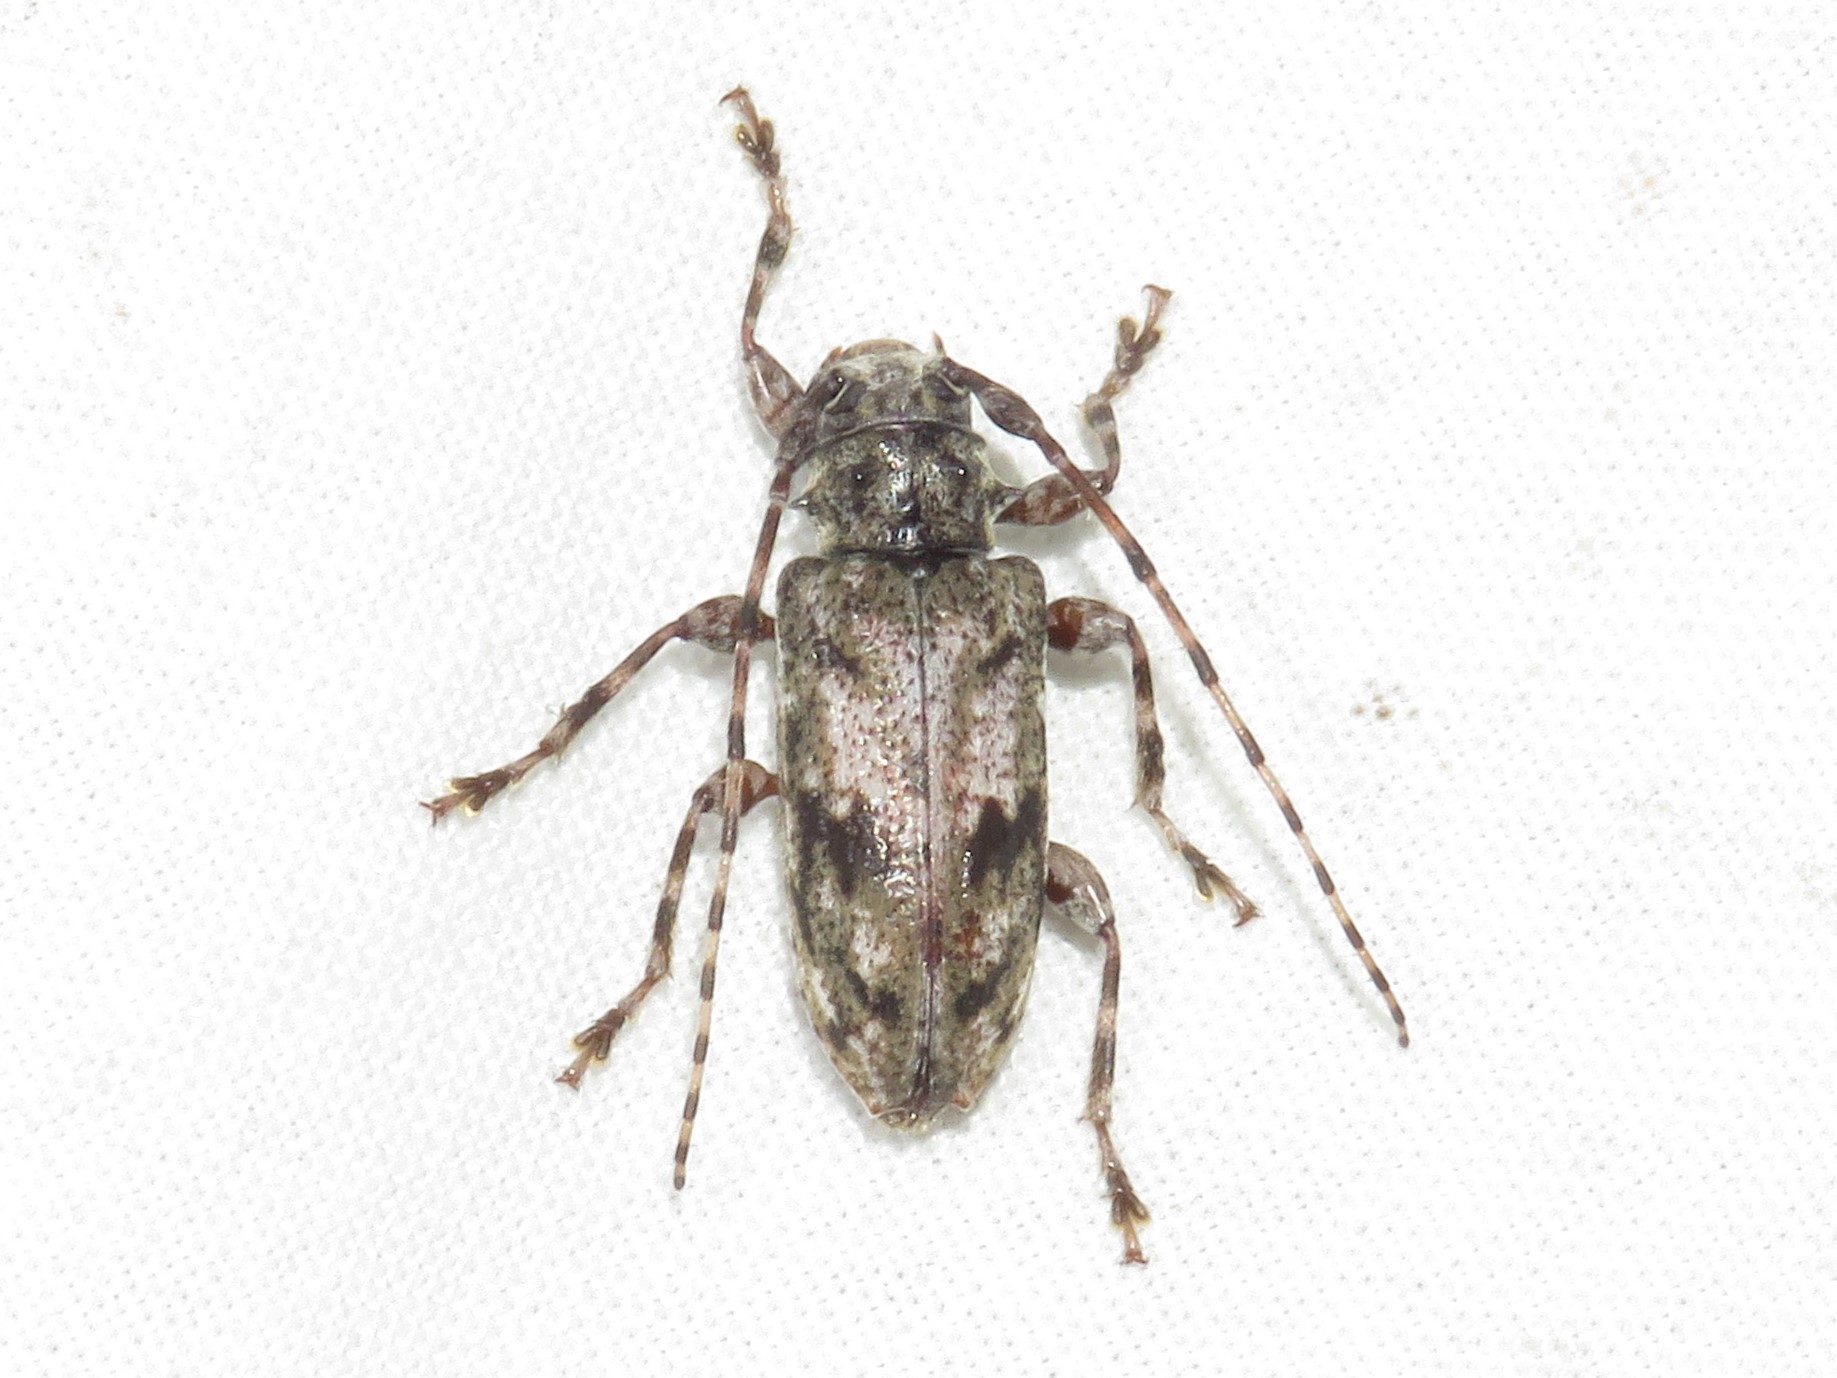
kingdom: Animalia
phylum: Arthropoda
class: Insecta
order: Coleoptera
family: Cerambycidae
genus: Aegomorphus
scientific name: Aegomorphus modestus
